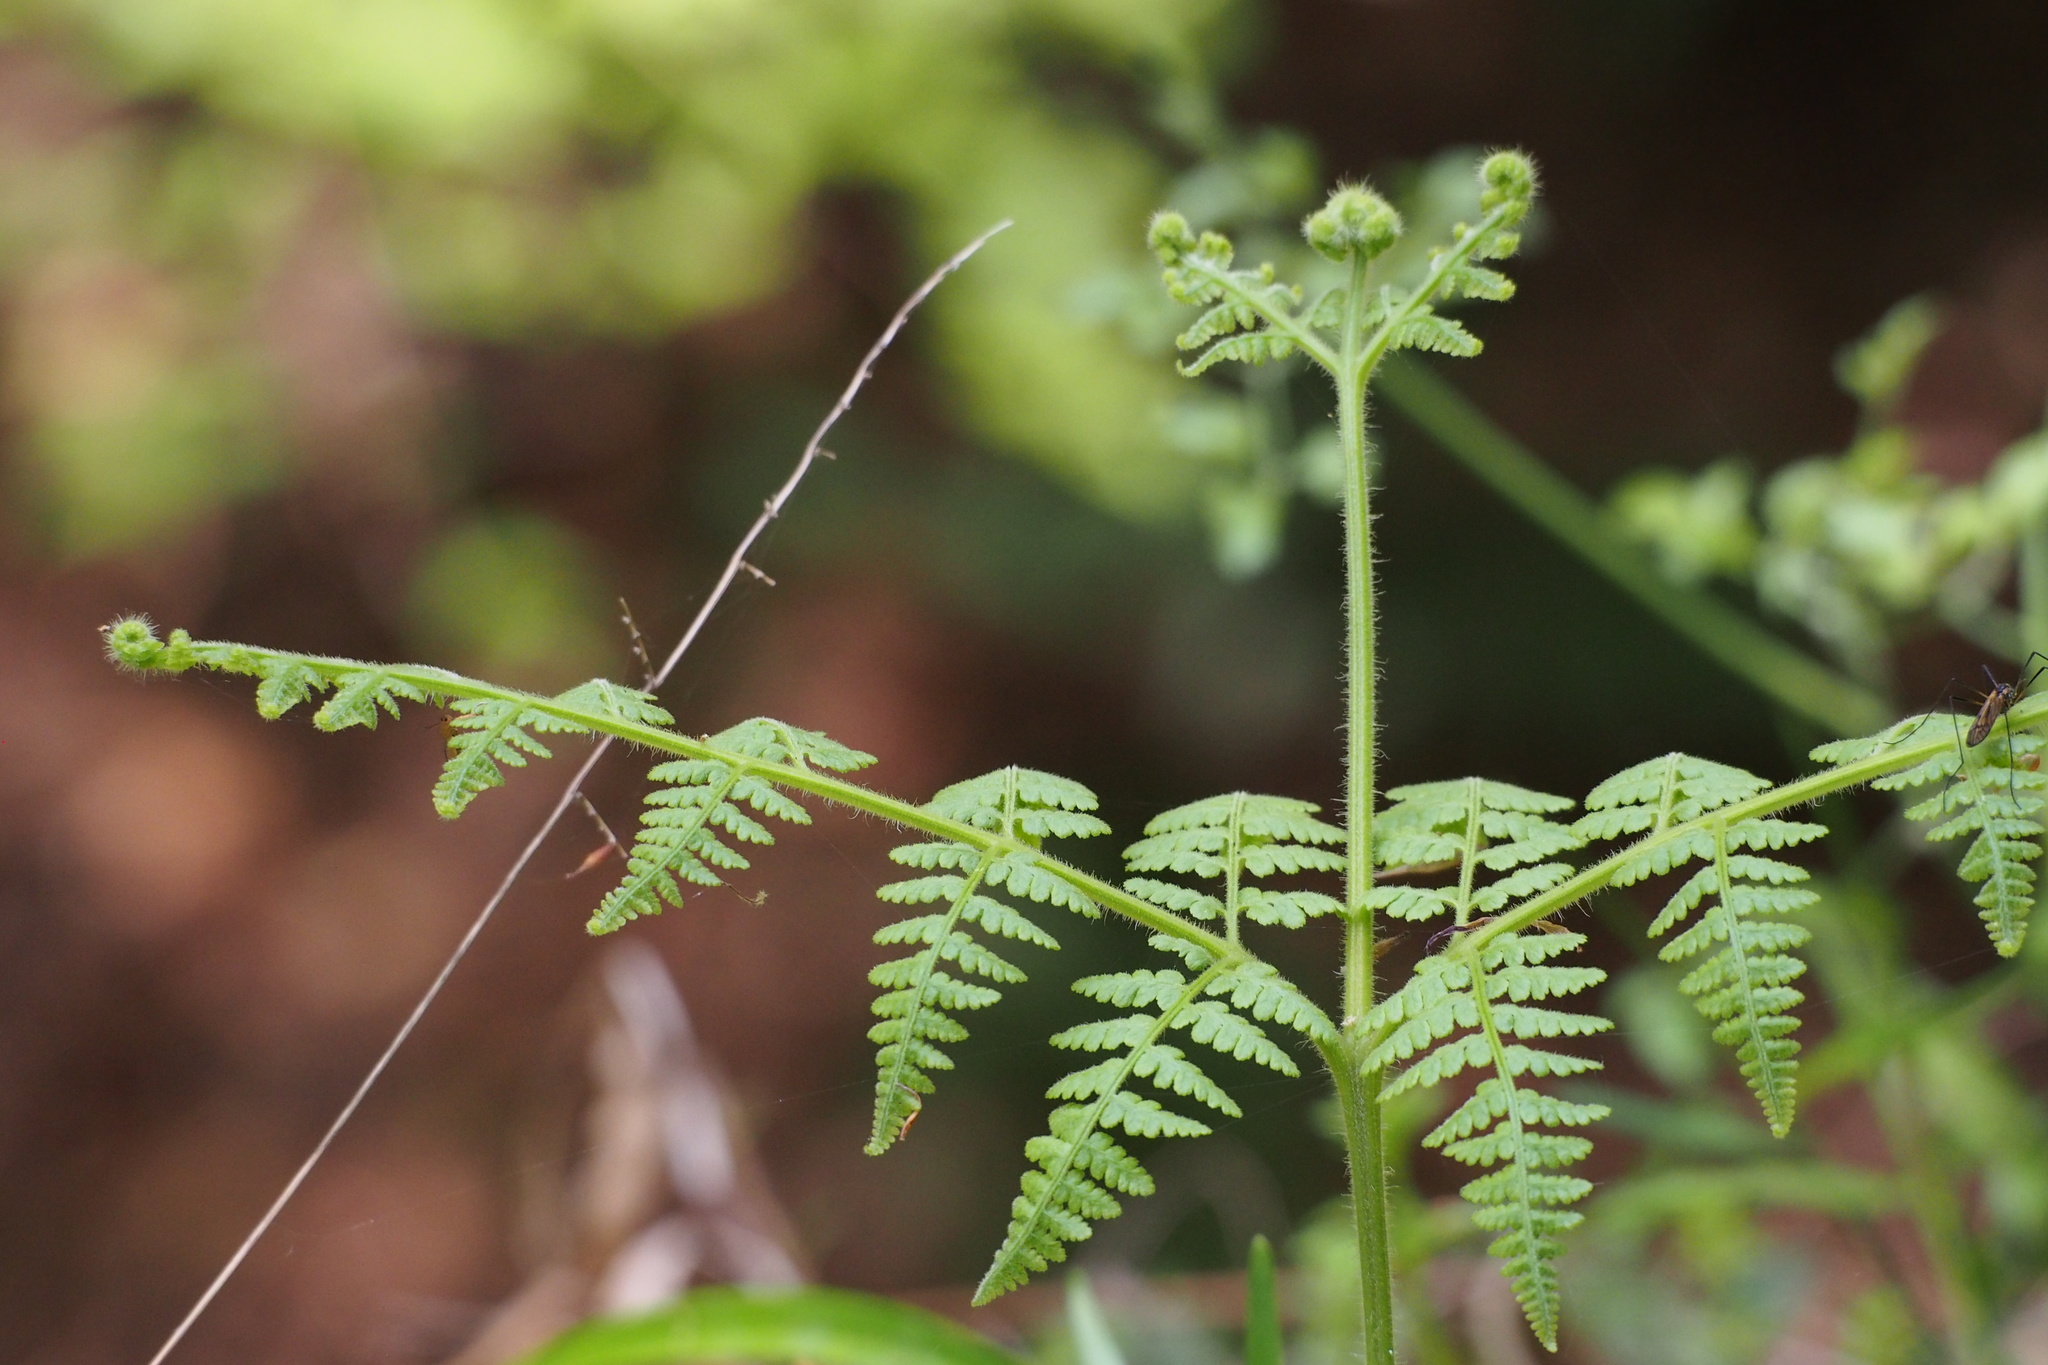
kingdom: Plantae
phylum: Tracheophyta
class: Polypodiopsida
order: Polypodiales
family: Dennstaedtiaceae
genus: Pteridium
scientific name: Pteridium aquilinum
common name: Bracken
